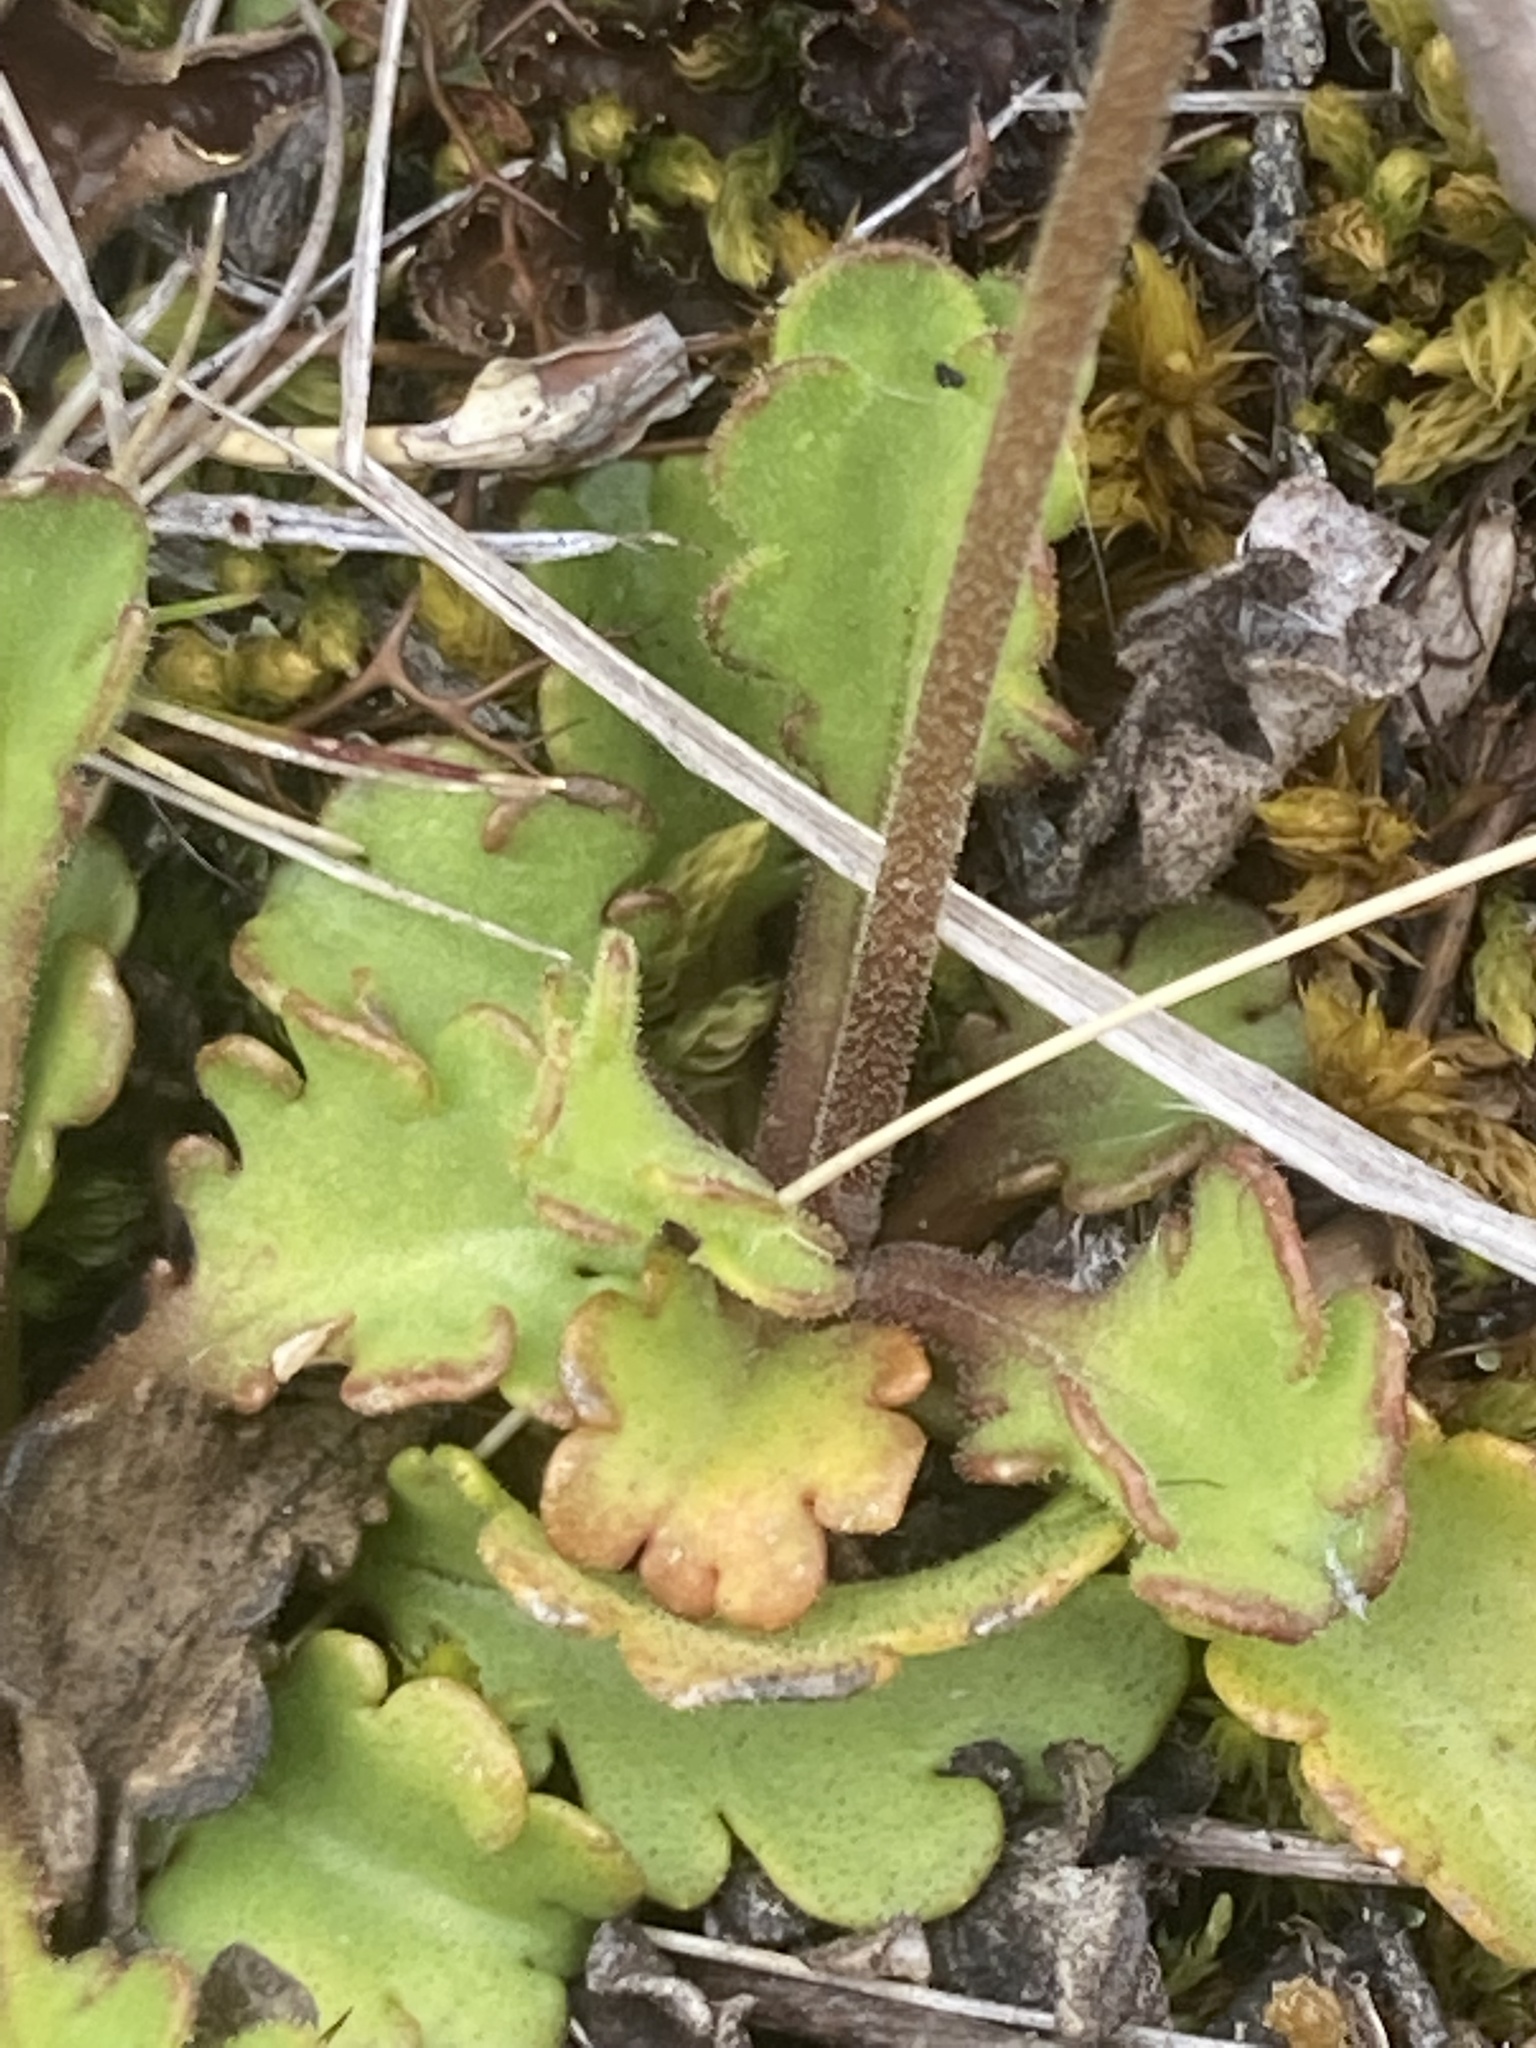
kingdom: Plantae
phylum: Tracheophyta
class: Magnoliopsida
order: Asterales
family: Asteraceae
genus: Brachyscome
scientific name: Brachyscome sinclairii
